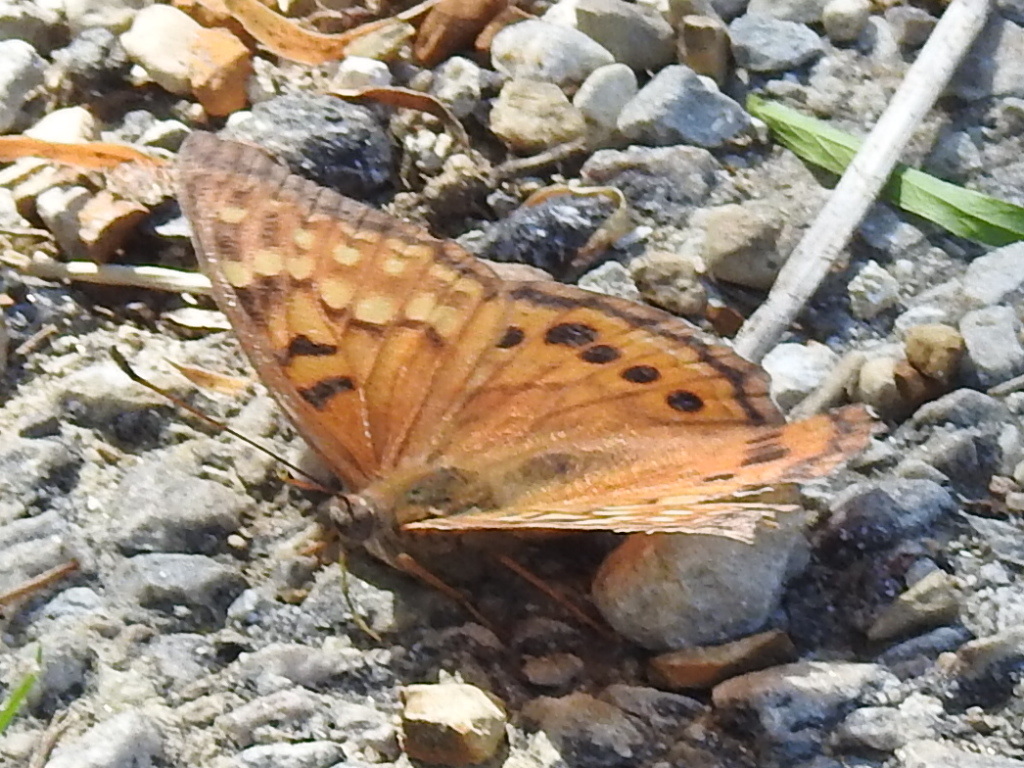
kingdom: Animalia
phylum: Arthropoda
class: Insecta
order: Lepidoptera
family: Nymphalidae
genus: Asterocampa
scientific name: Asterocampa clyton
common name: Tawny emperor
